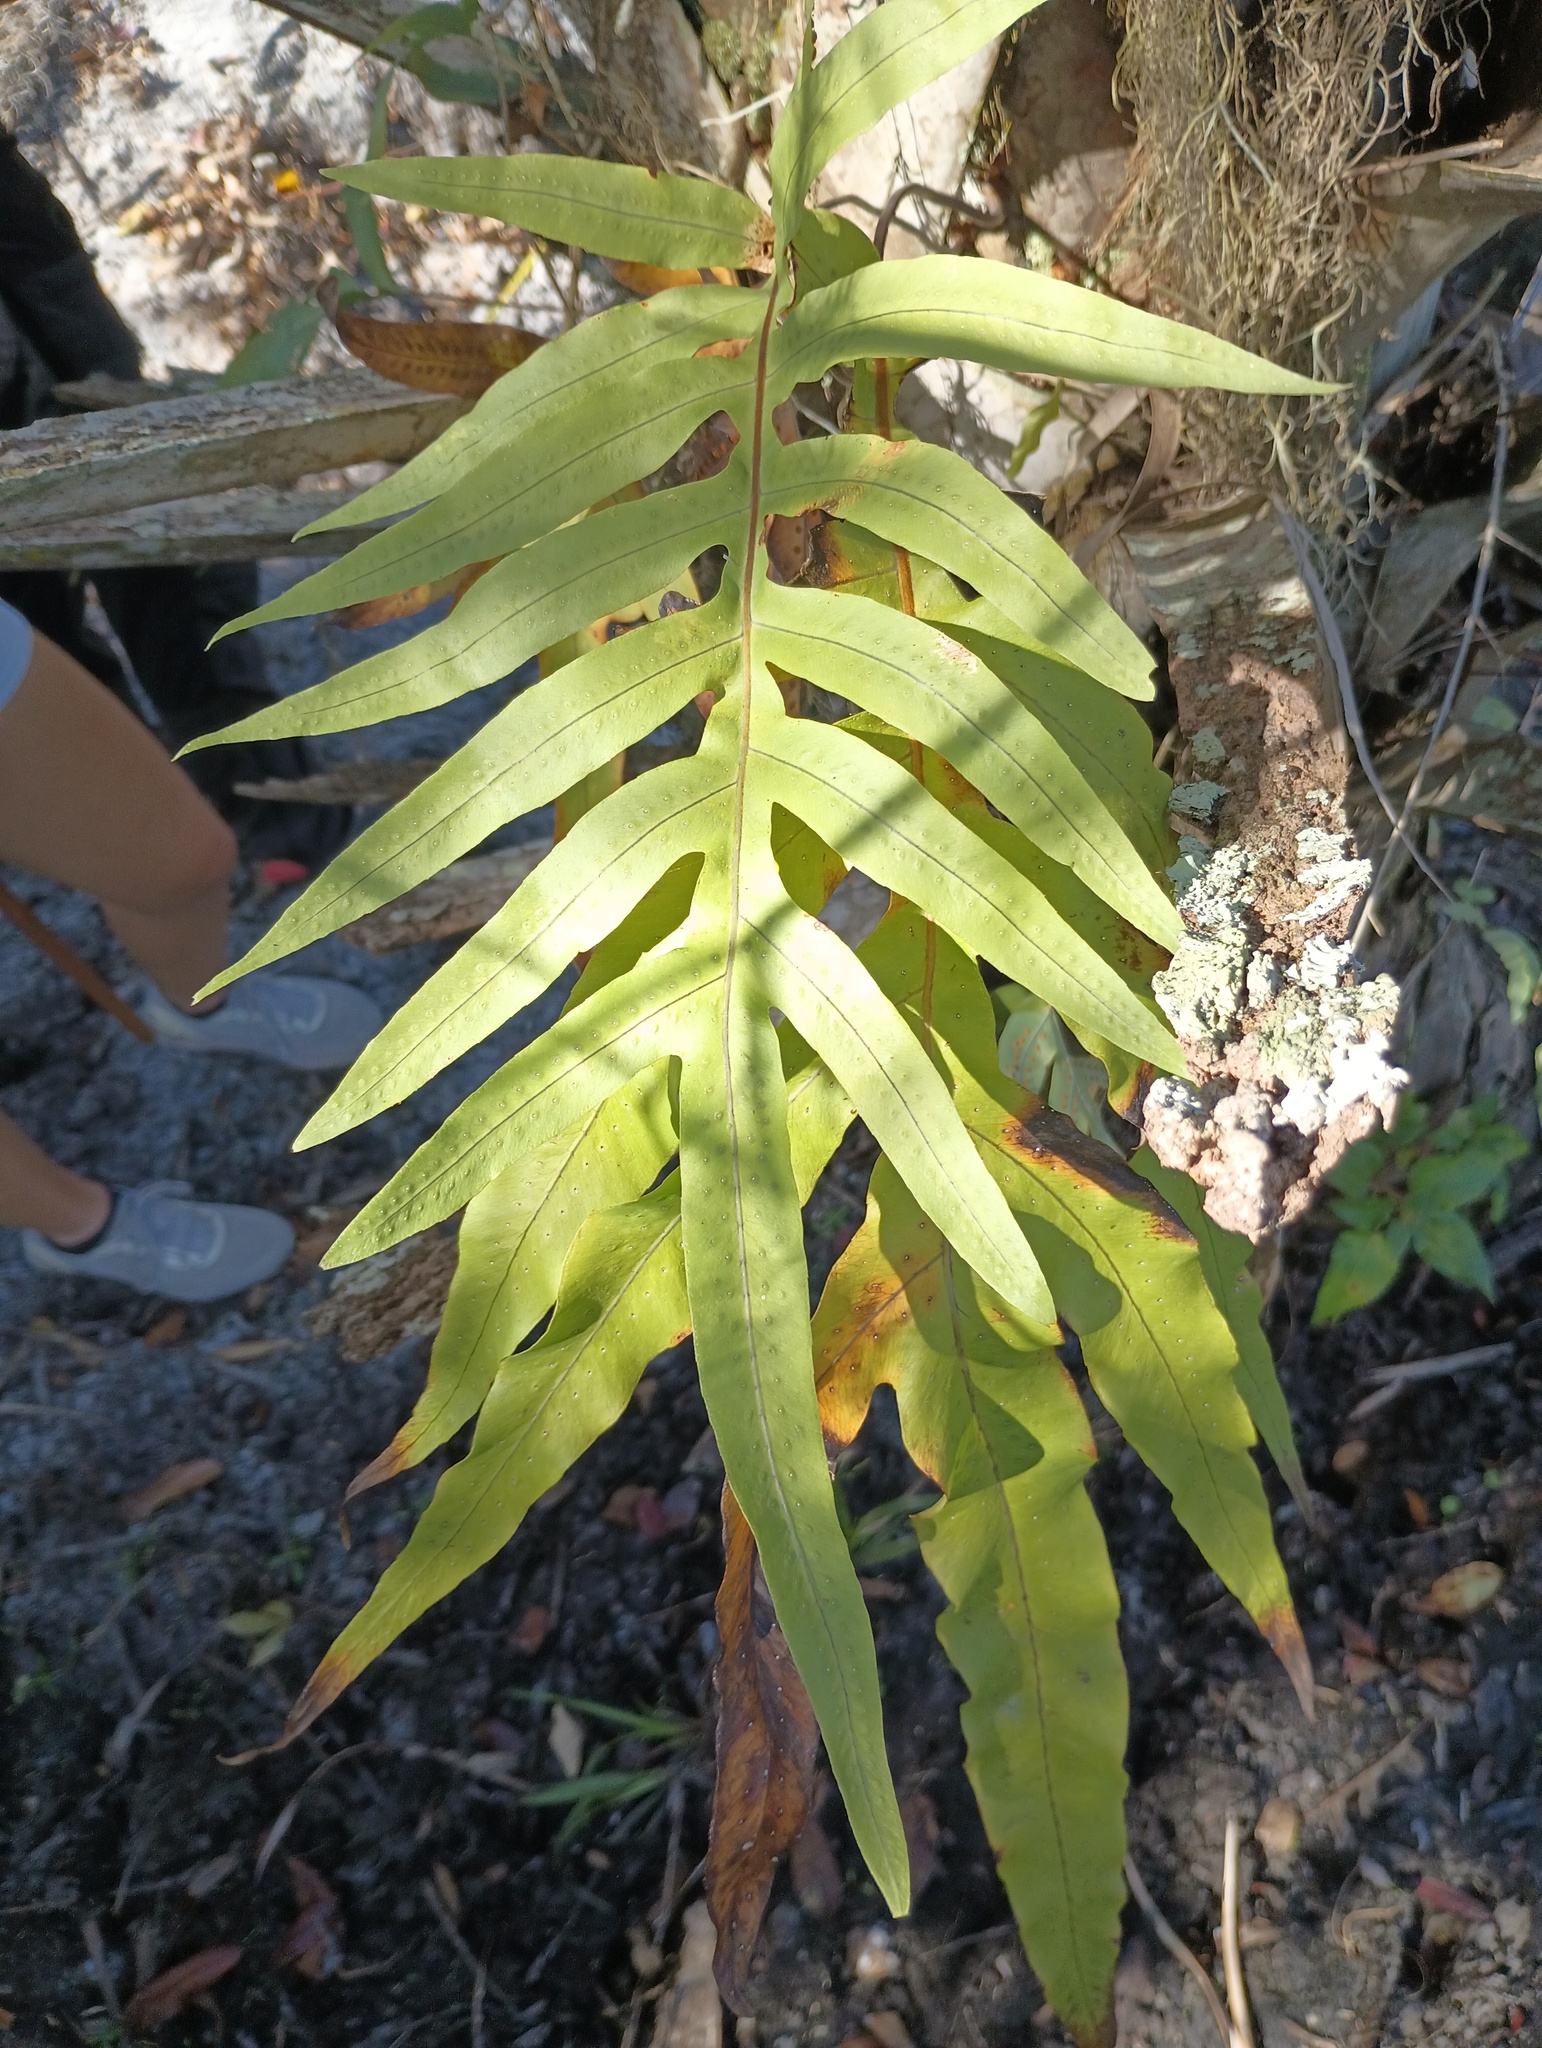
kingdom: Plantae
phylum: Tracheophyta
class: Polypodiopsida
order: Polypodiales
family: Polypodiaceae
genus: Phlebodium
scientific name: Phlebodium aureum
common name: Gold-foot fern
